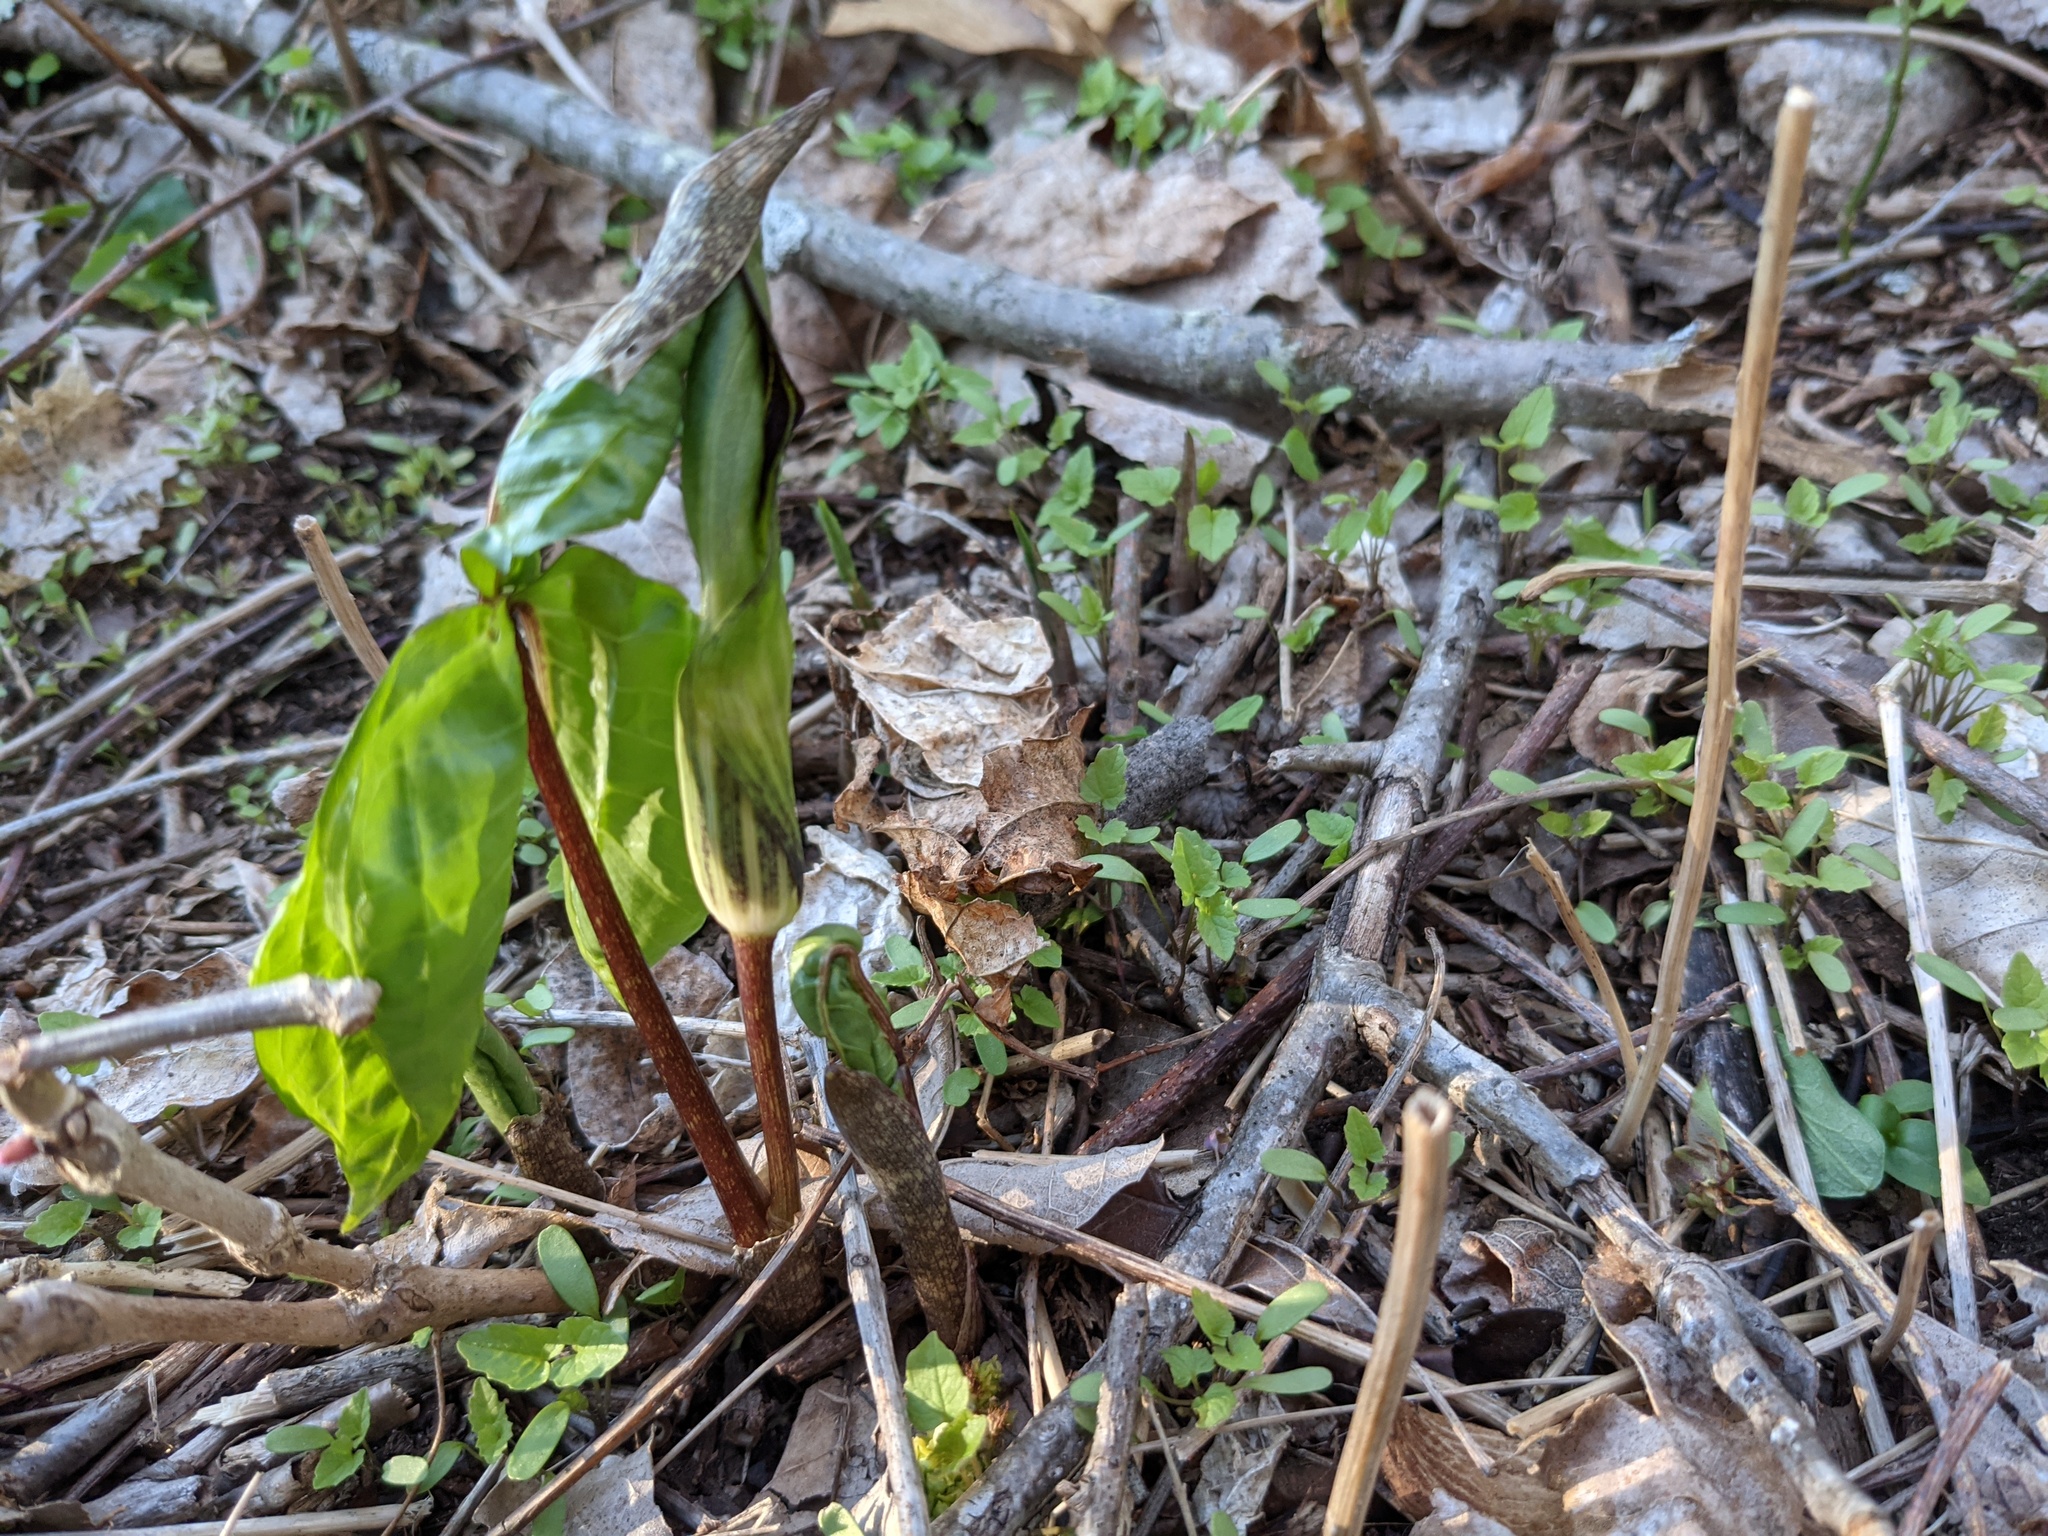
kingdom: Plantae
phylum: Tracheophyta
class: Liliopsida
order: Alismatales
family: Araceae
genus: Arisaema
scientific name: Arisaema triphyllum
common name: Jack-in-the-pulpit
